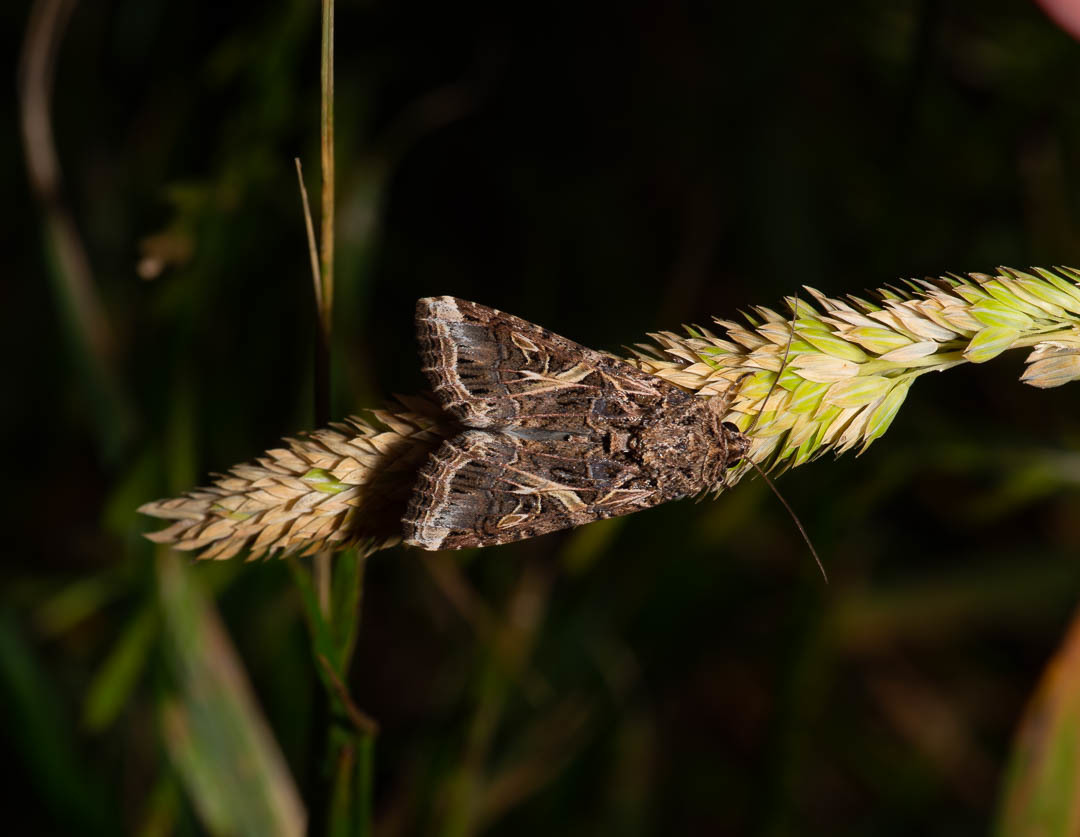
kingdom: Animalia
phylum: Arthropoda
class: Insecta
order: Lepidoptera
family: Noctuidae
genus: Spodoptera
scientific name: Spodoptera ornithogalli
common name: Yellow-striped armyworm
